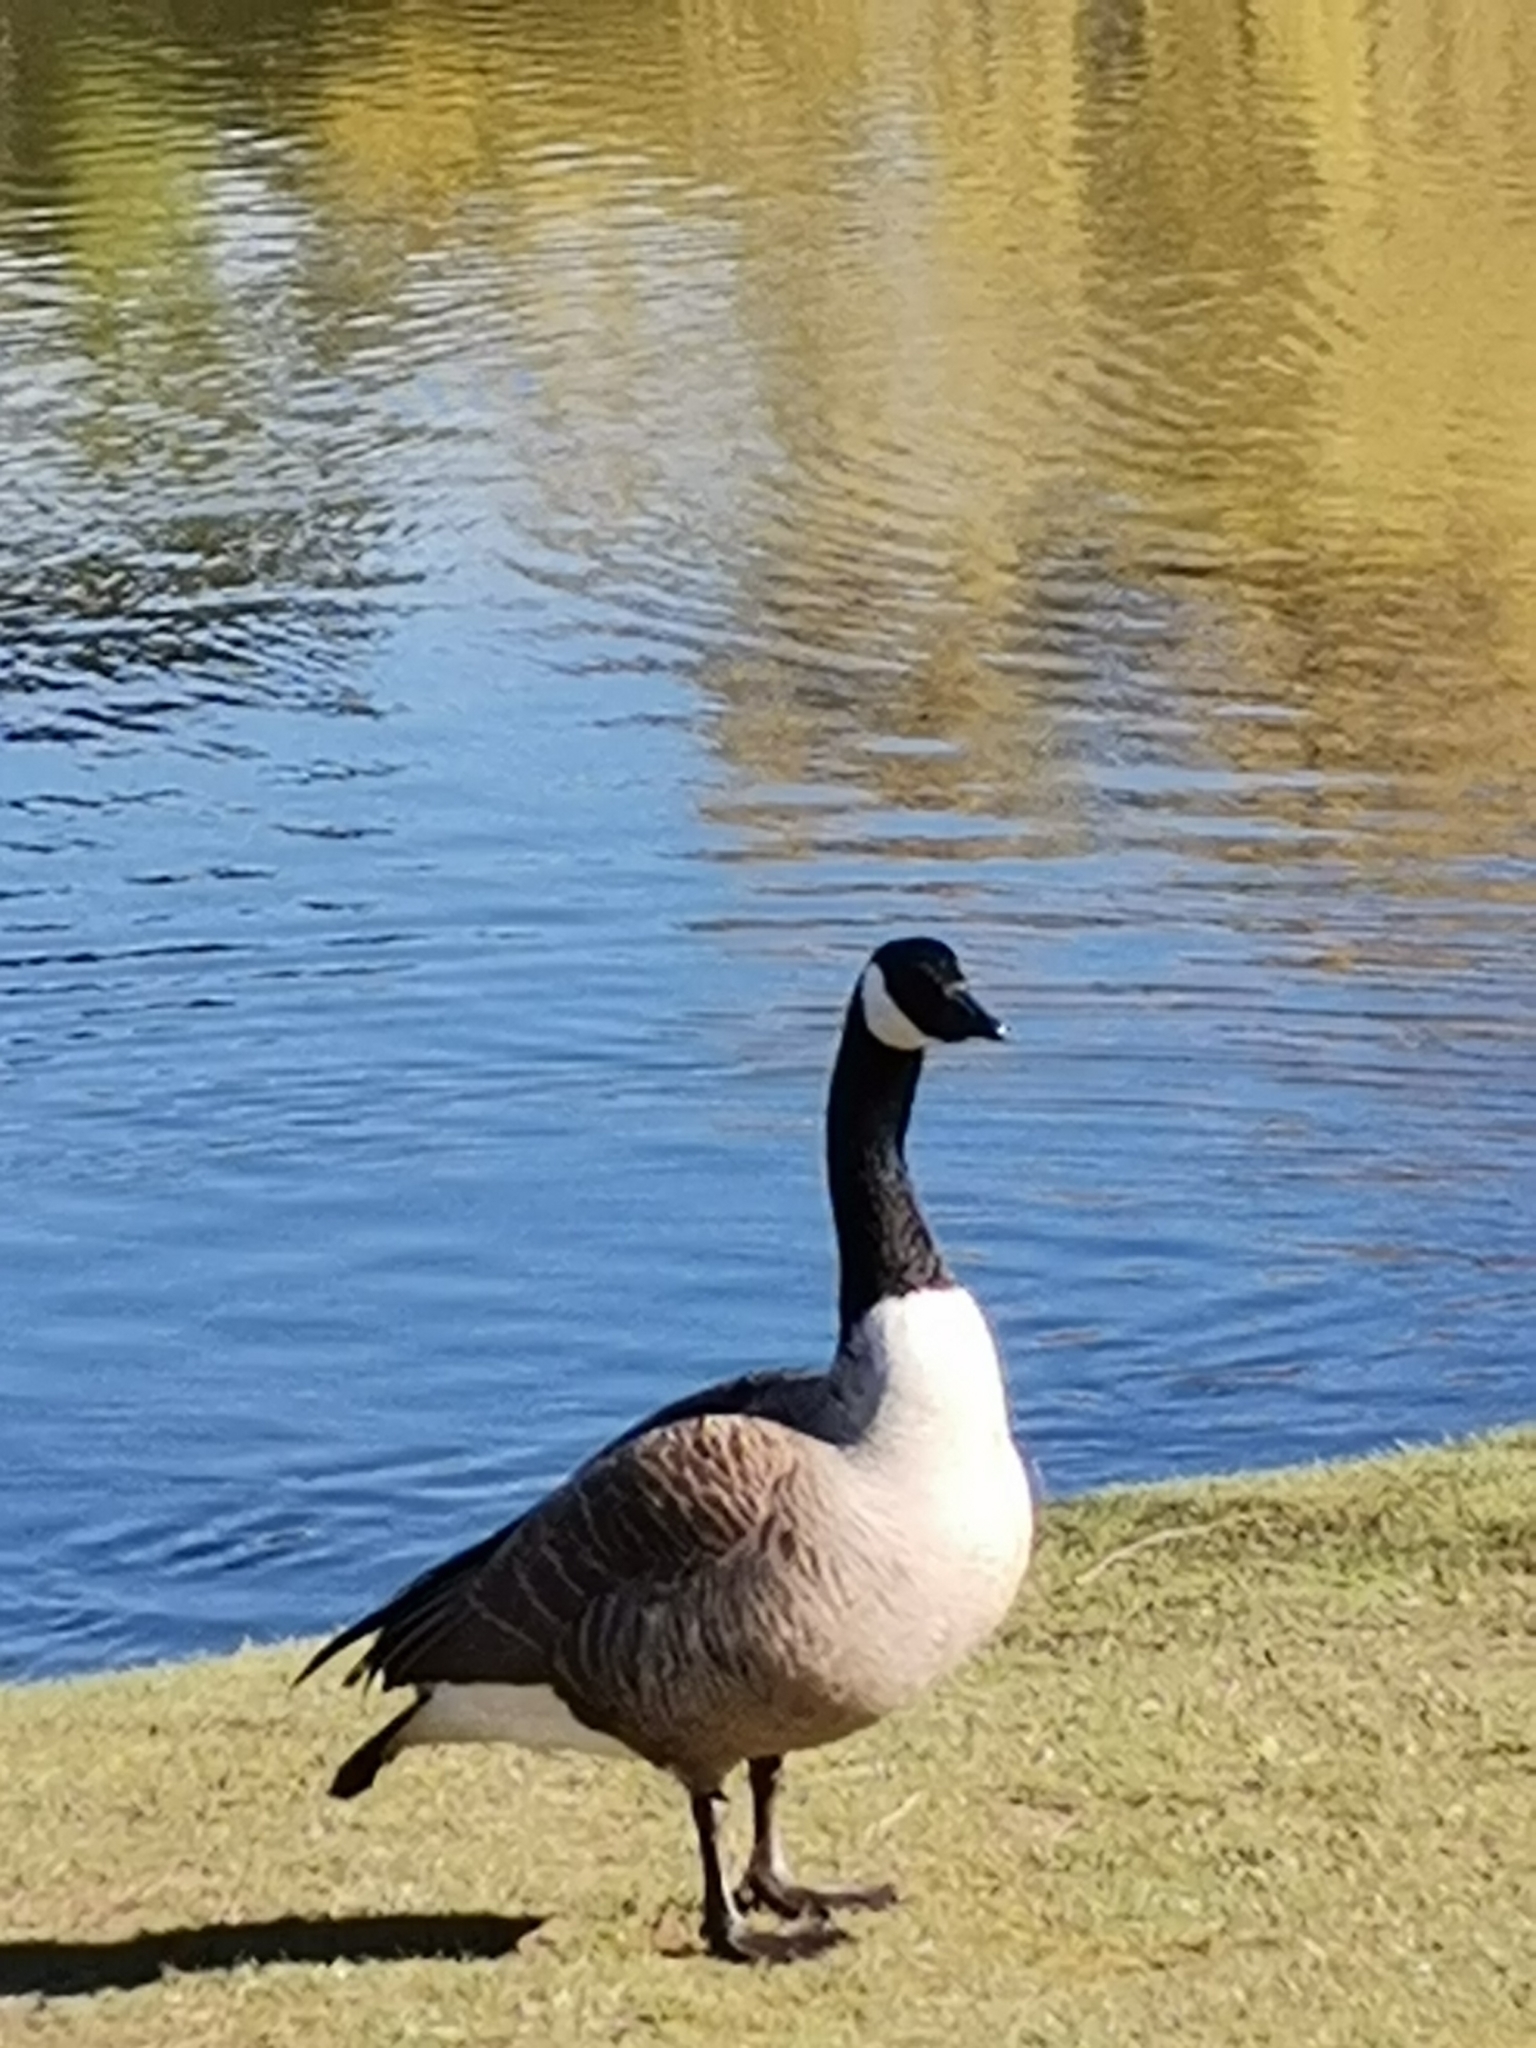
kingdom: Animalia
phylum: Chordata
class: Aves
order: Anseriformes
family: Anatidae
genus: Branta
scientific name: Branta canadensis
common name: Canada goose
